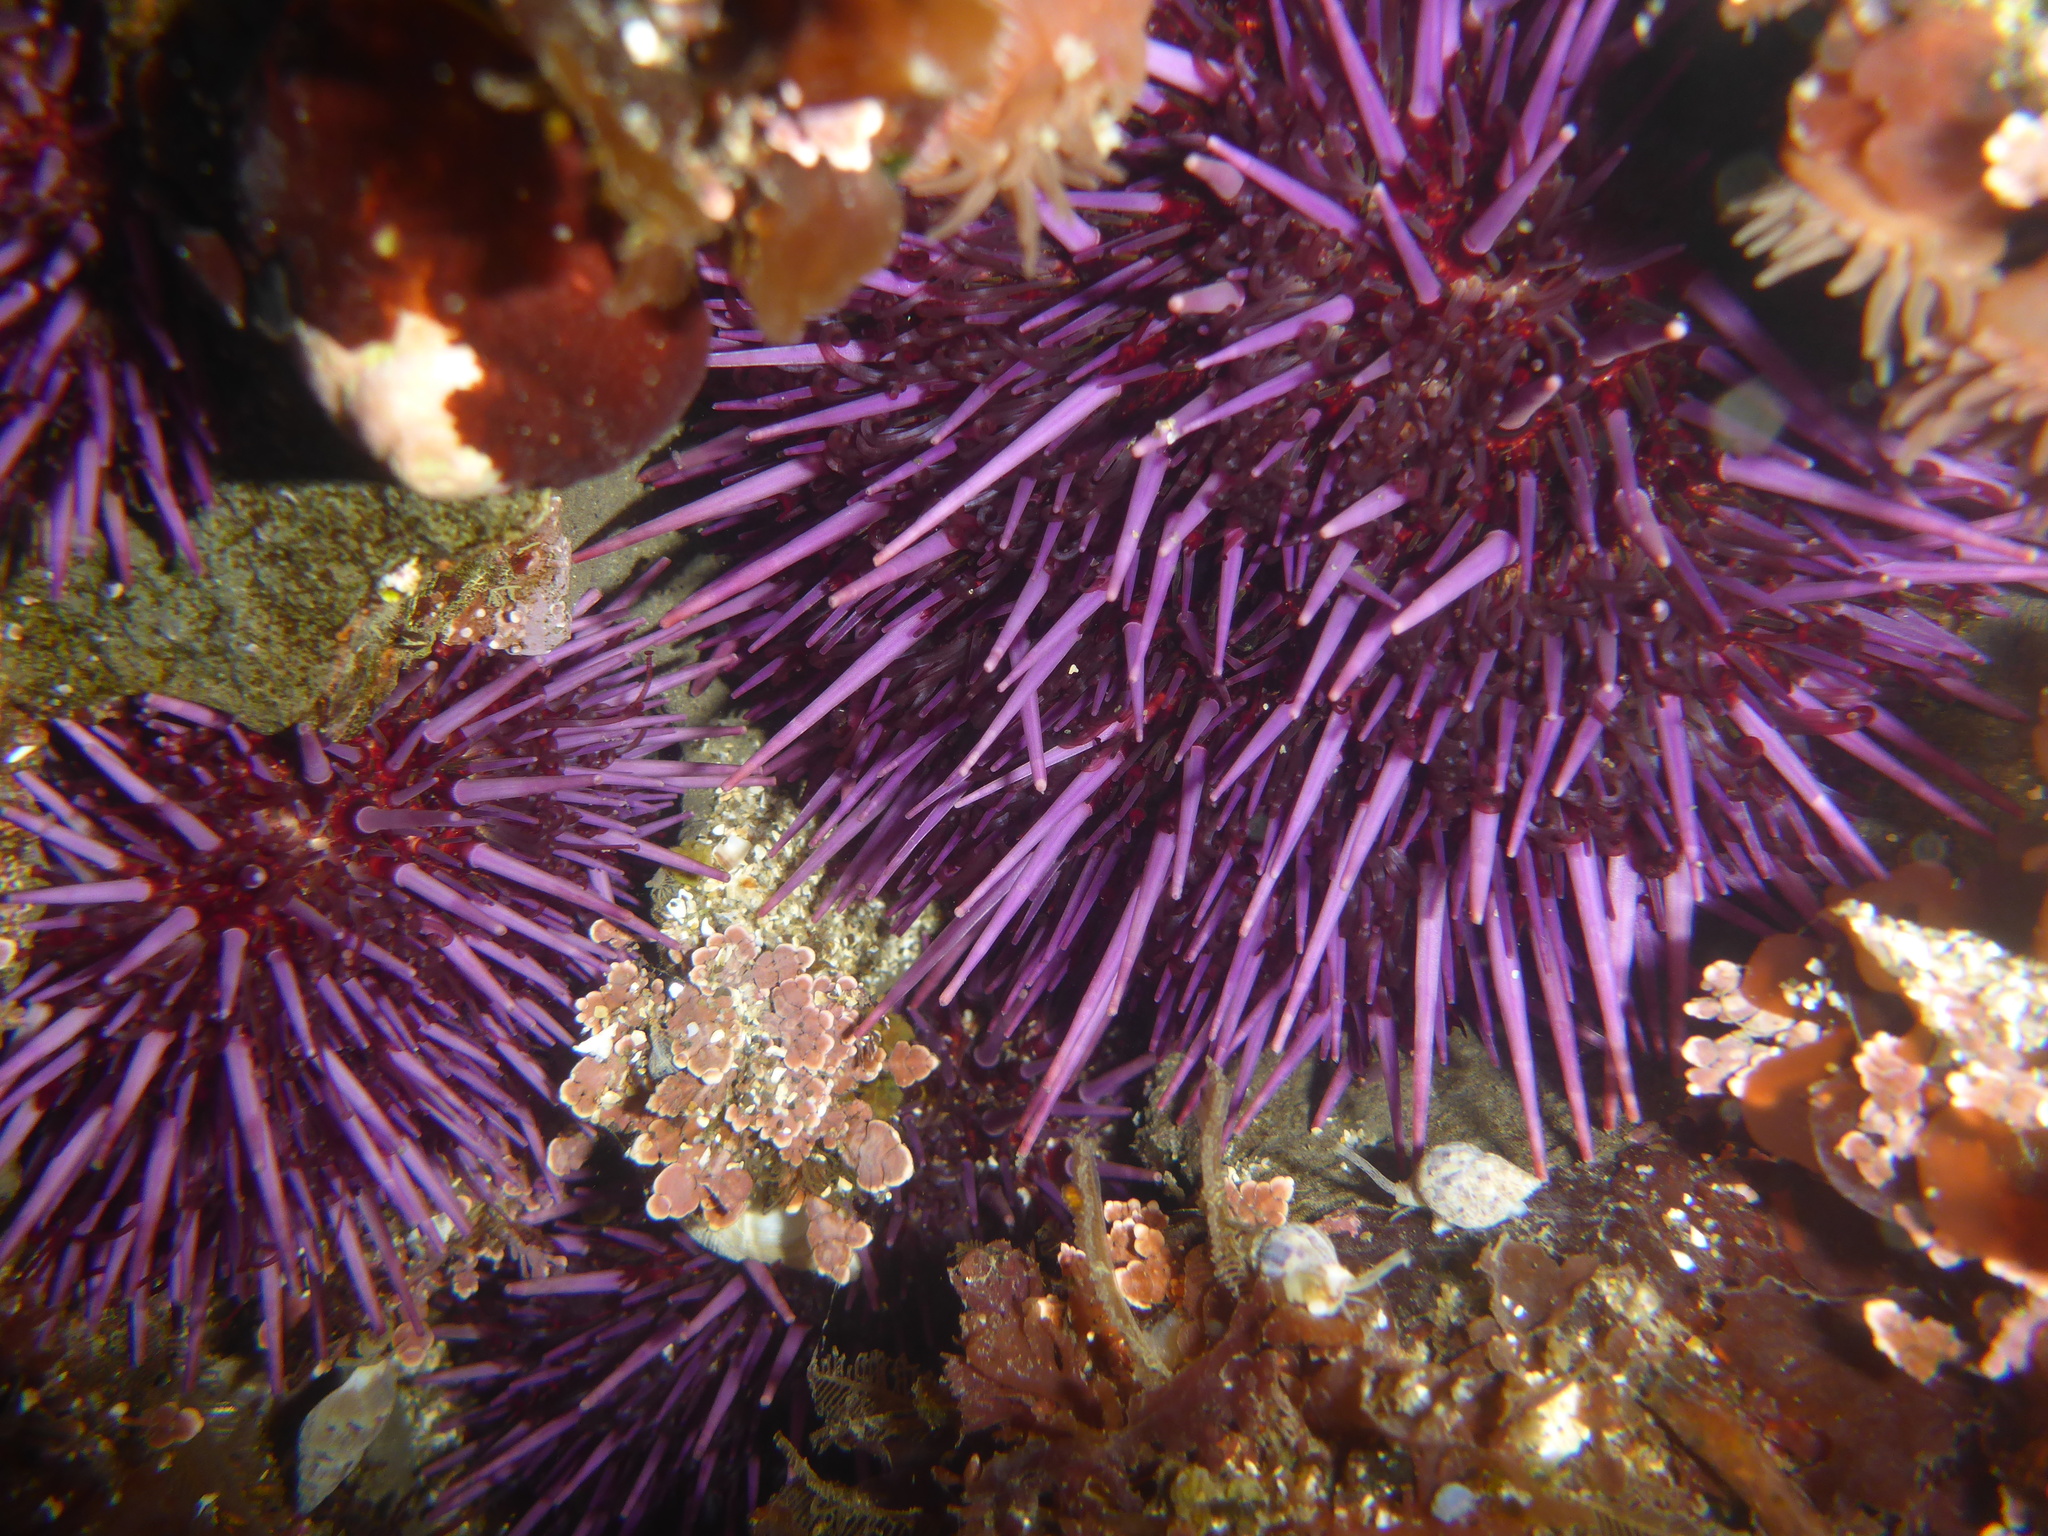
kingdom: Animalia
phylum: Echinodermata
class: Echinoidea
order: Camarodonta
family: Strongylocentrotidae
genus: Strongylocentrotus
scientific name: Strongylocentrotus purpuratus
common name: Purple sea urchin
